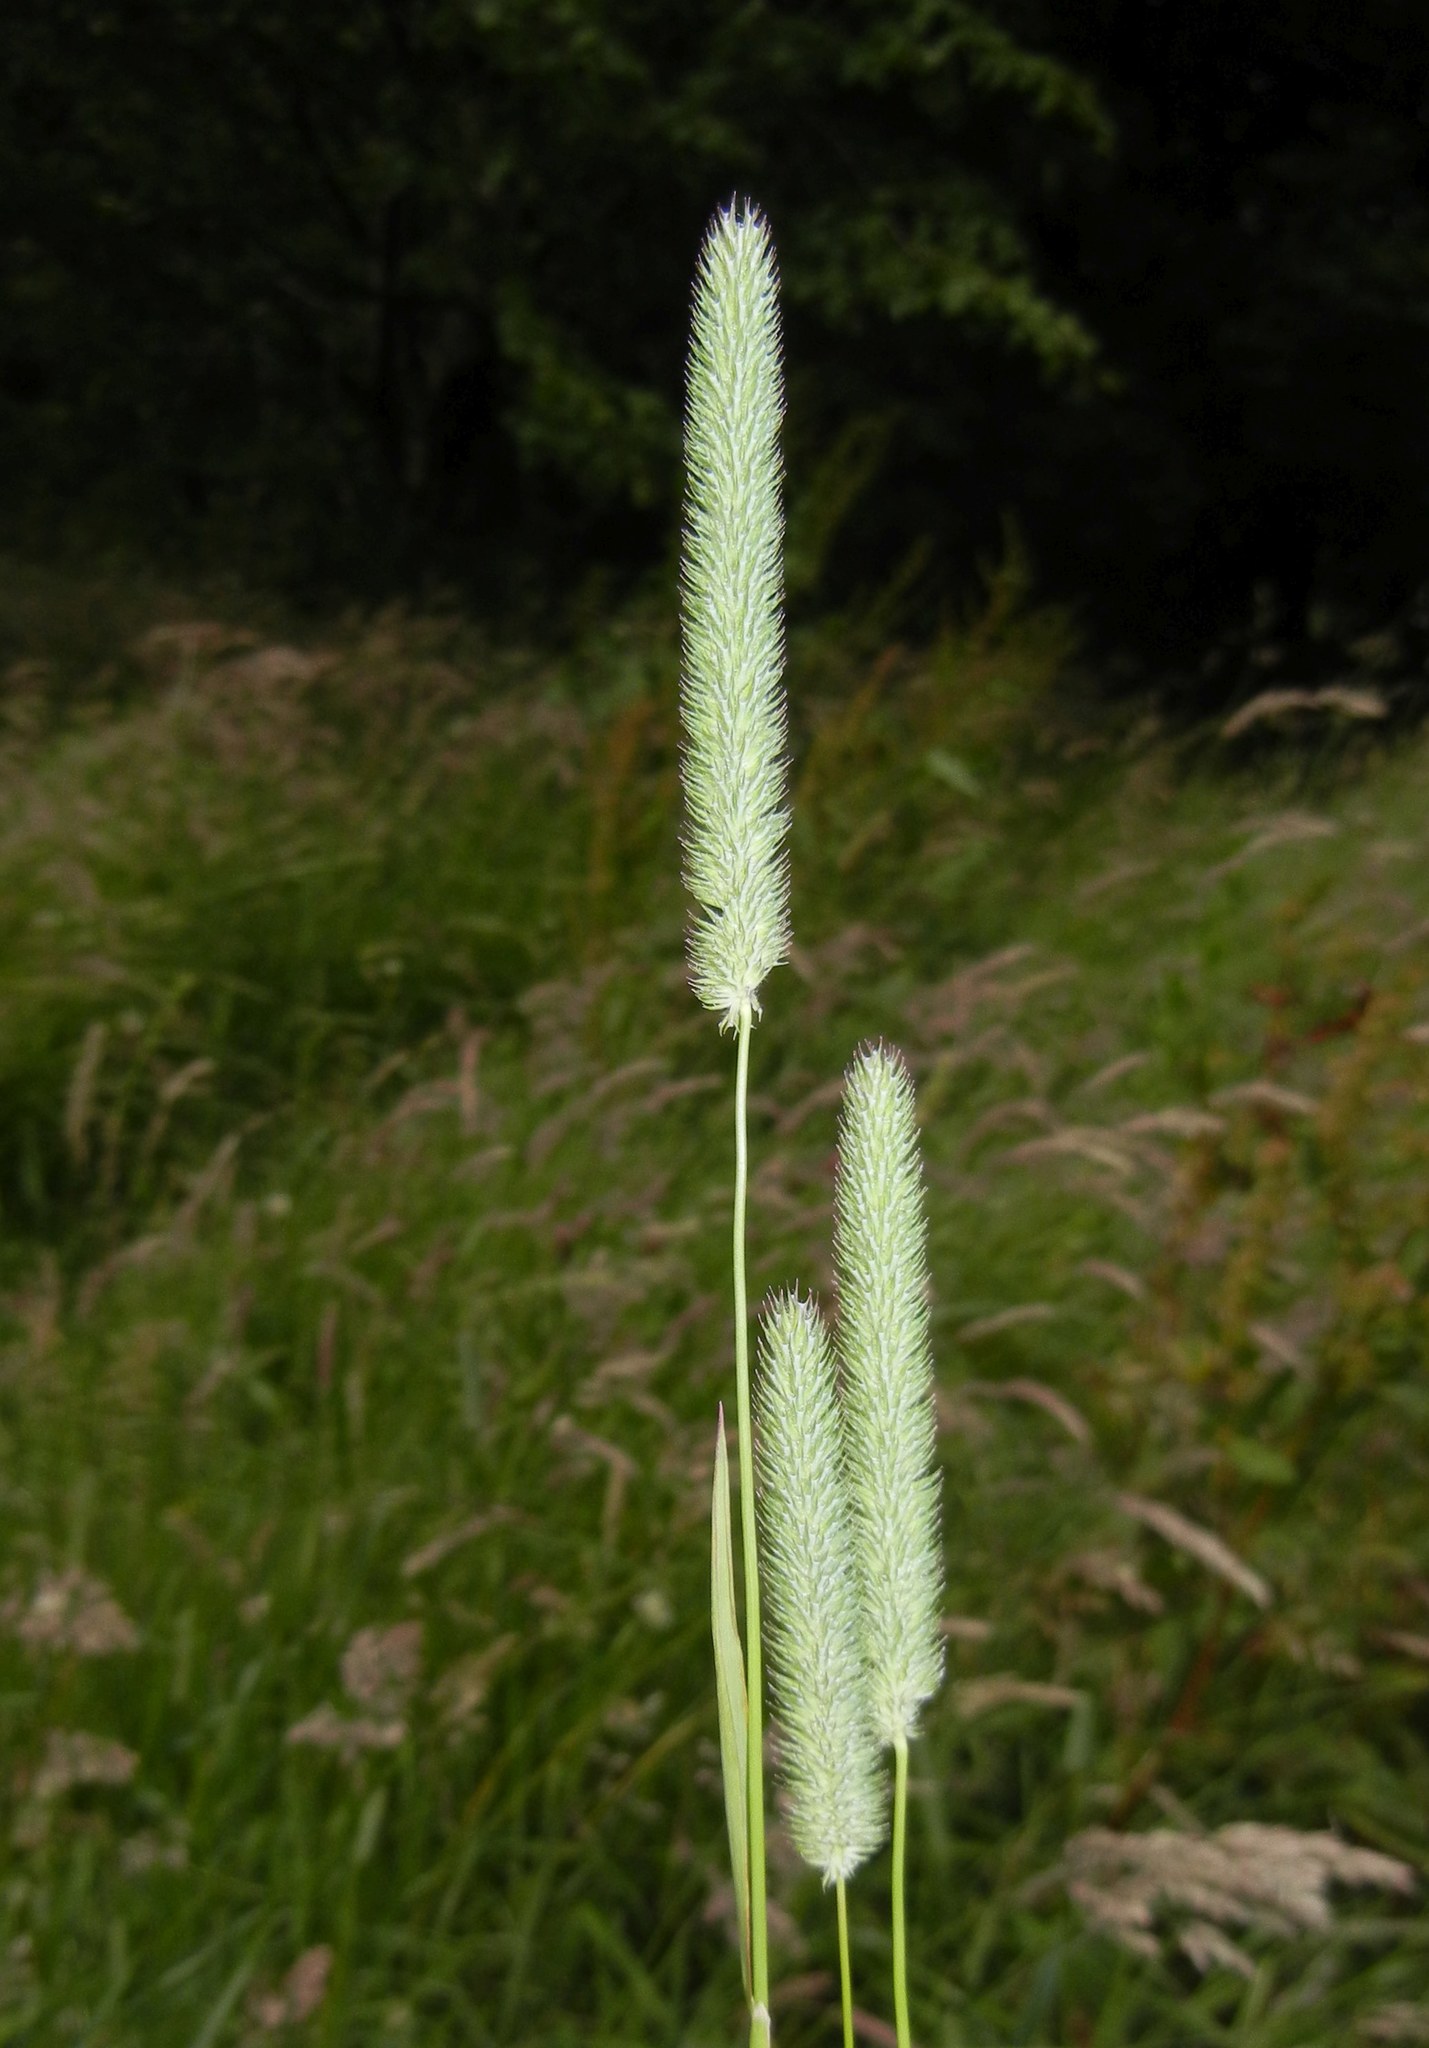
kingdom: Plantae
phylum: Tracheophyta
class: Liliopsida
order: Poales
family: Poaceae
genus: Phleum
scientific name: Phleum pratense
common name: Timothy grass
